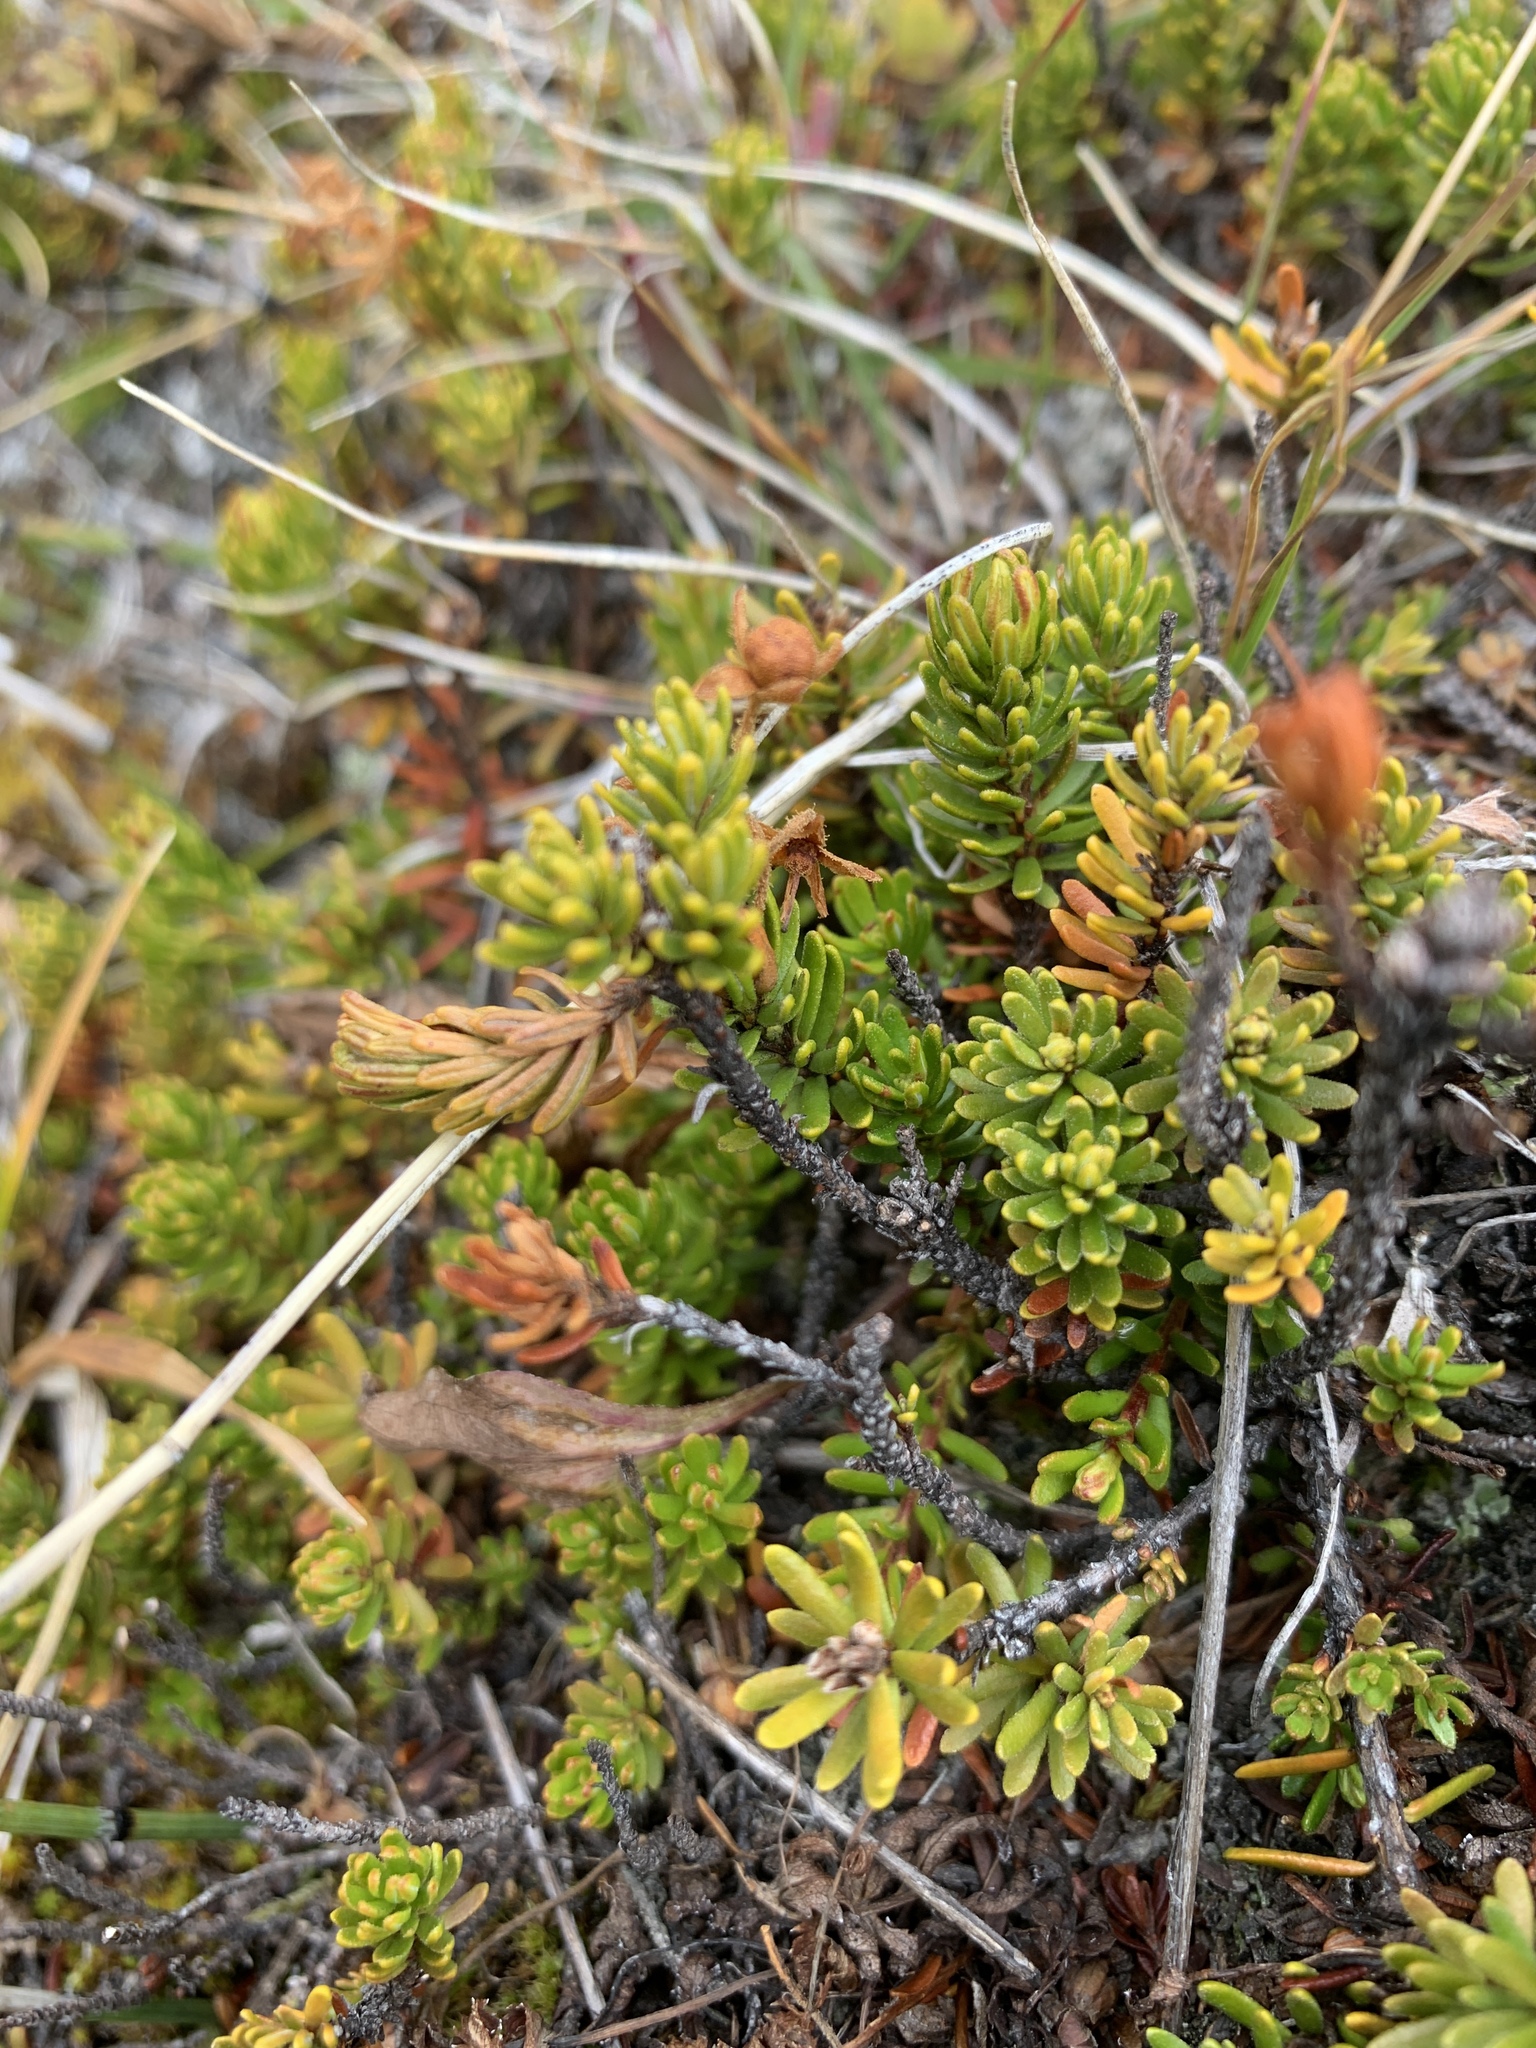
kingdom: Plantae
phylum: Tracheophyta
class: Magnoliopsida
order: Ericales
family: Ericaceae
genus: Phyllodoce
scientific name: Phyllodoce
